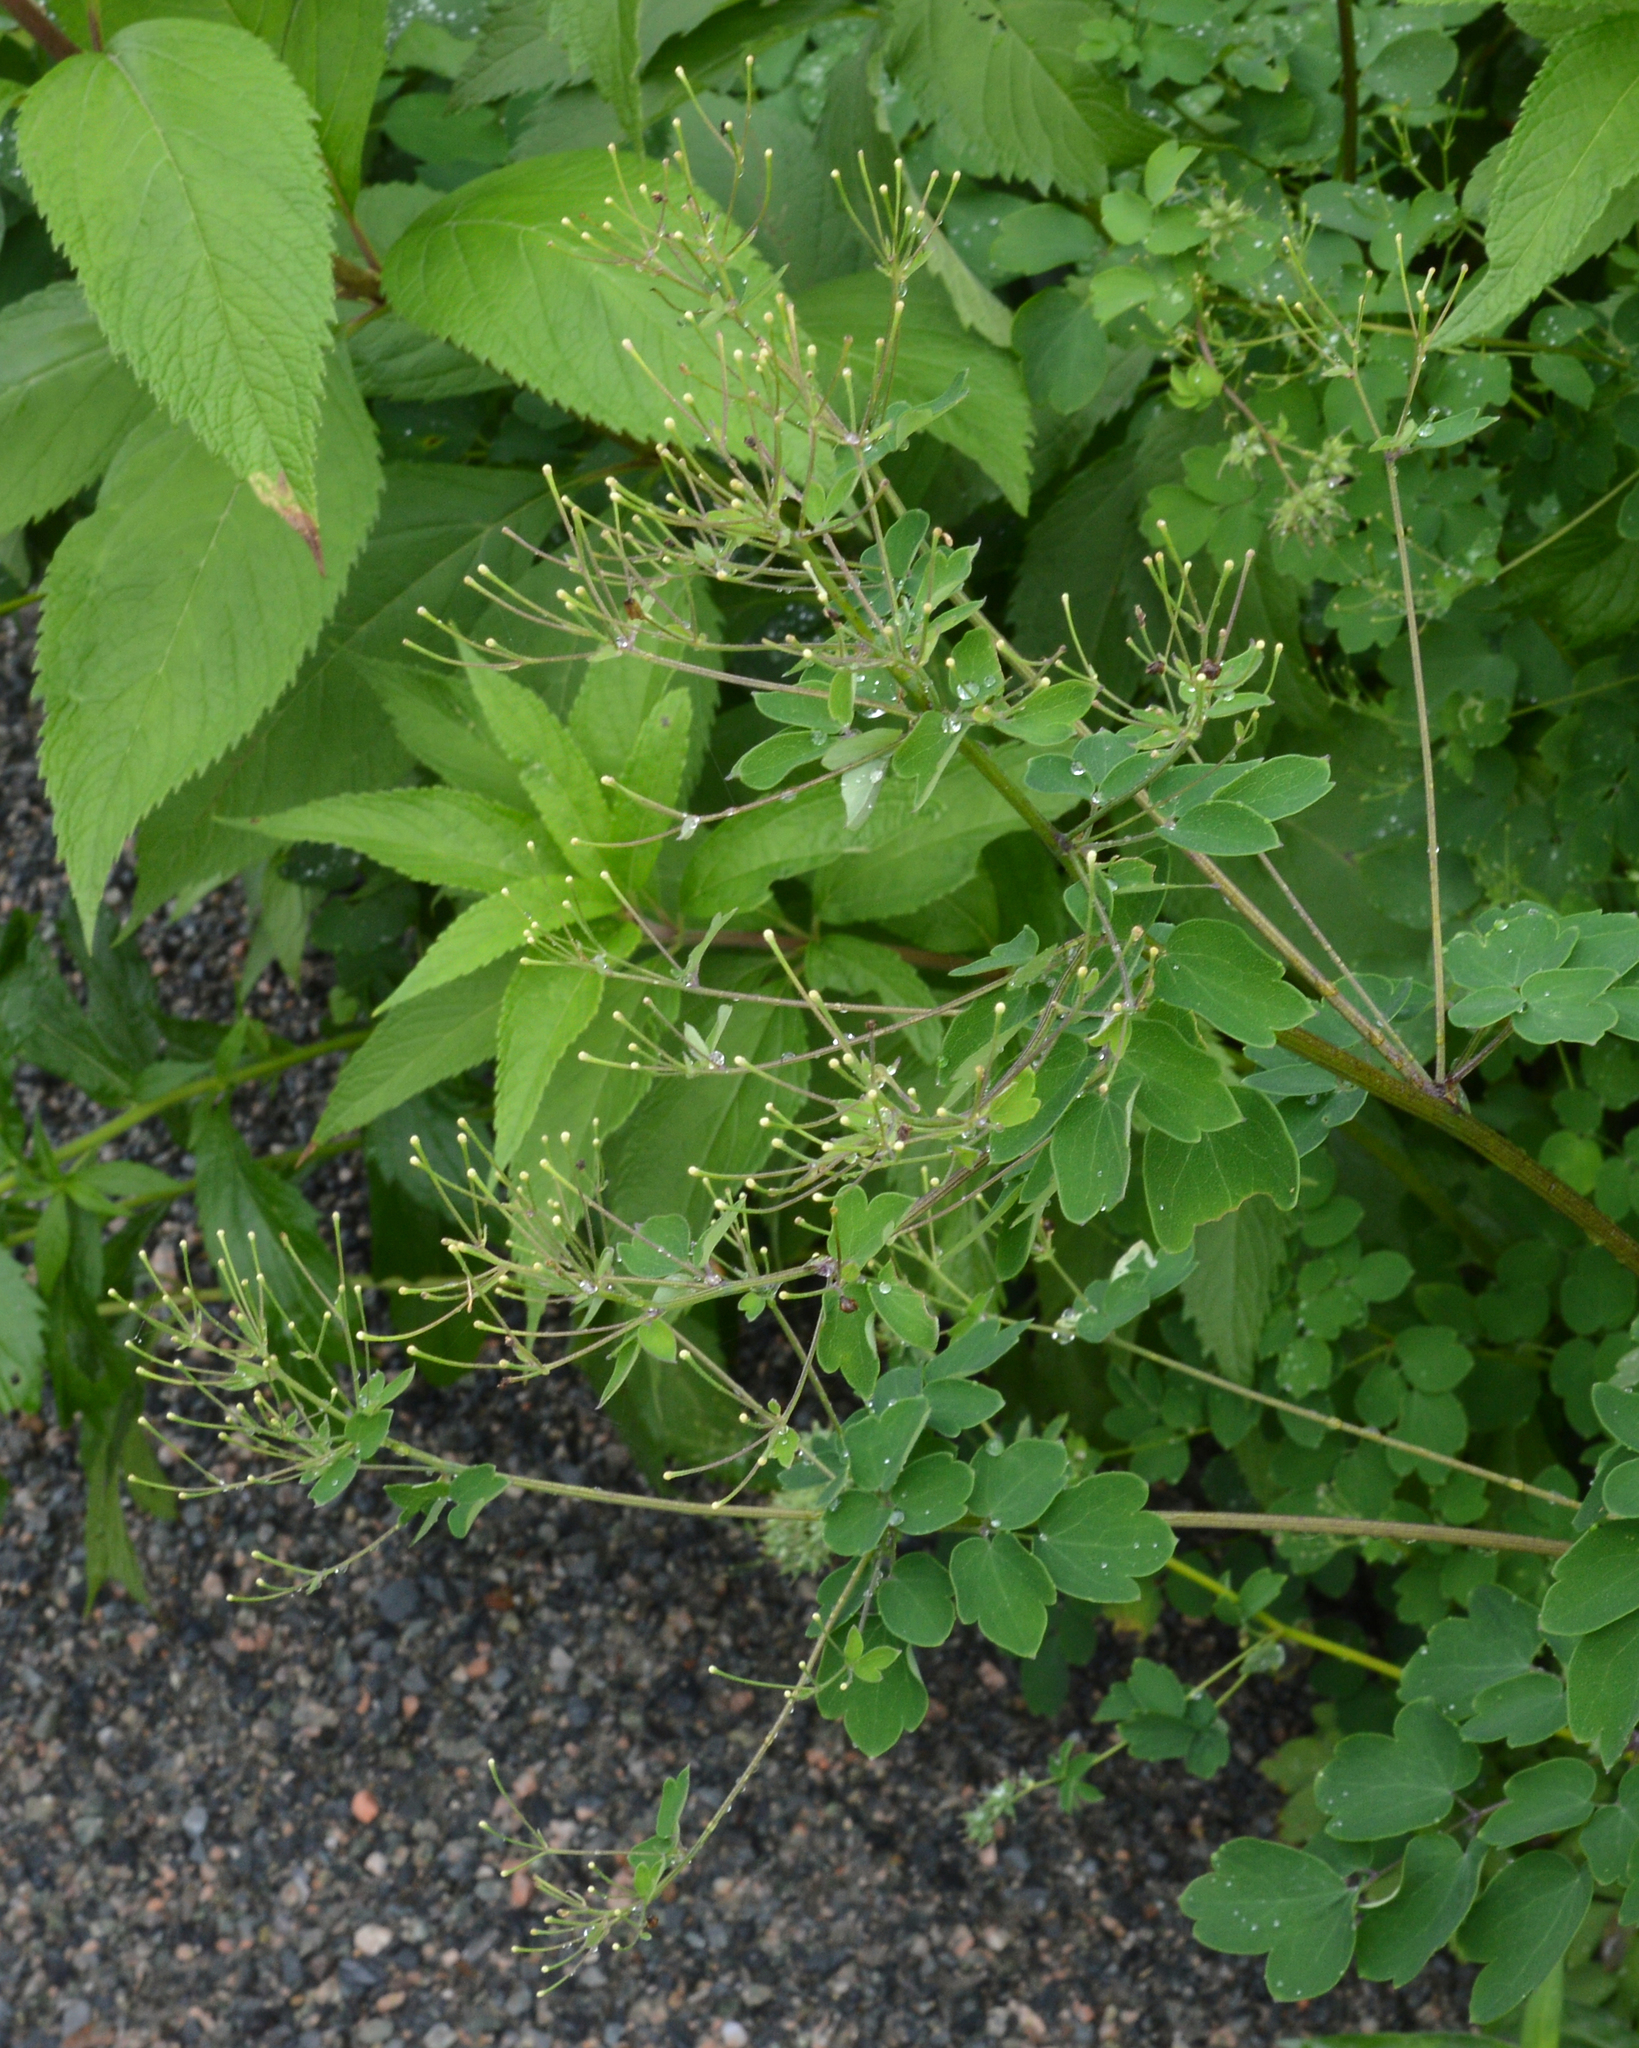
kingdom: Plantae
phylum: Tracheophyta
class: Magnoliopsida
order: Ranunculales
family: Ranunculaceae
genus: Thalictrum
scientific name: Thalictrum pubescens
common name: King-of-the-meadow
